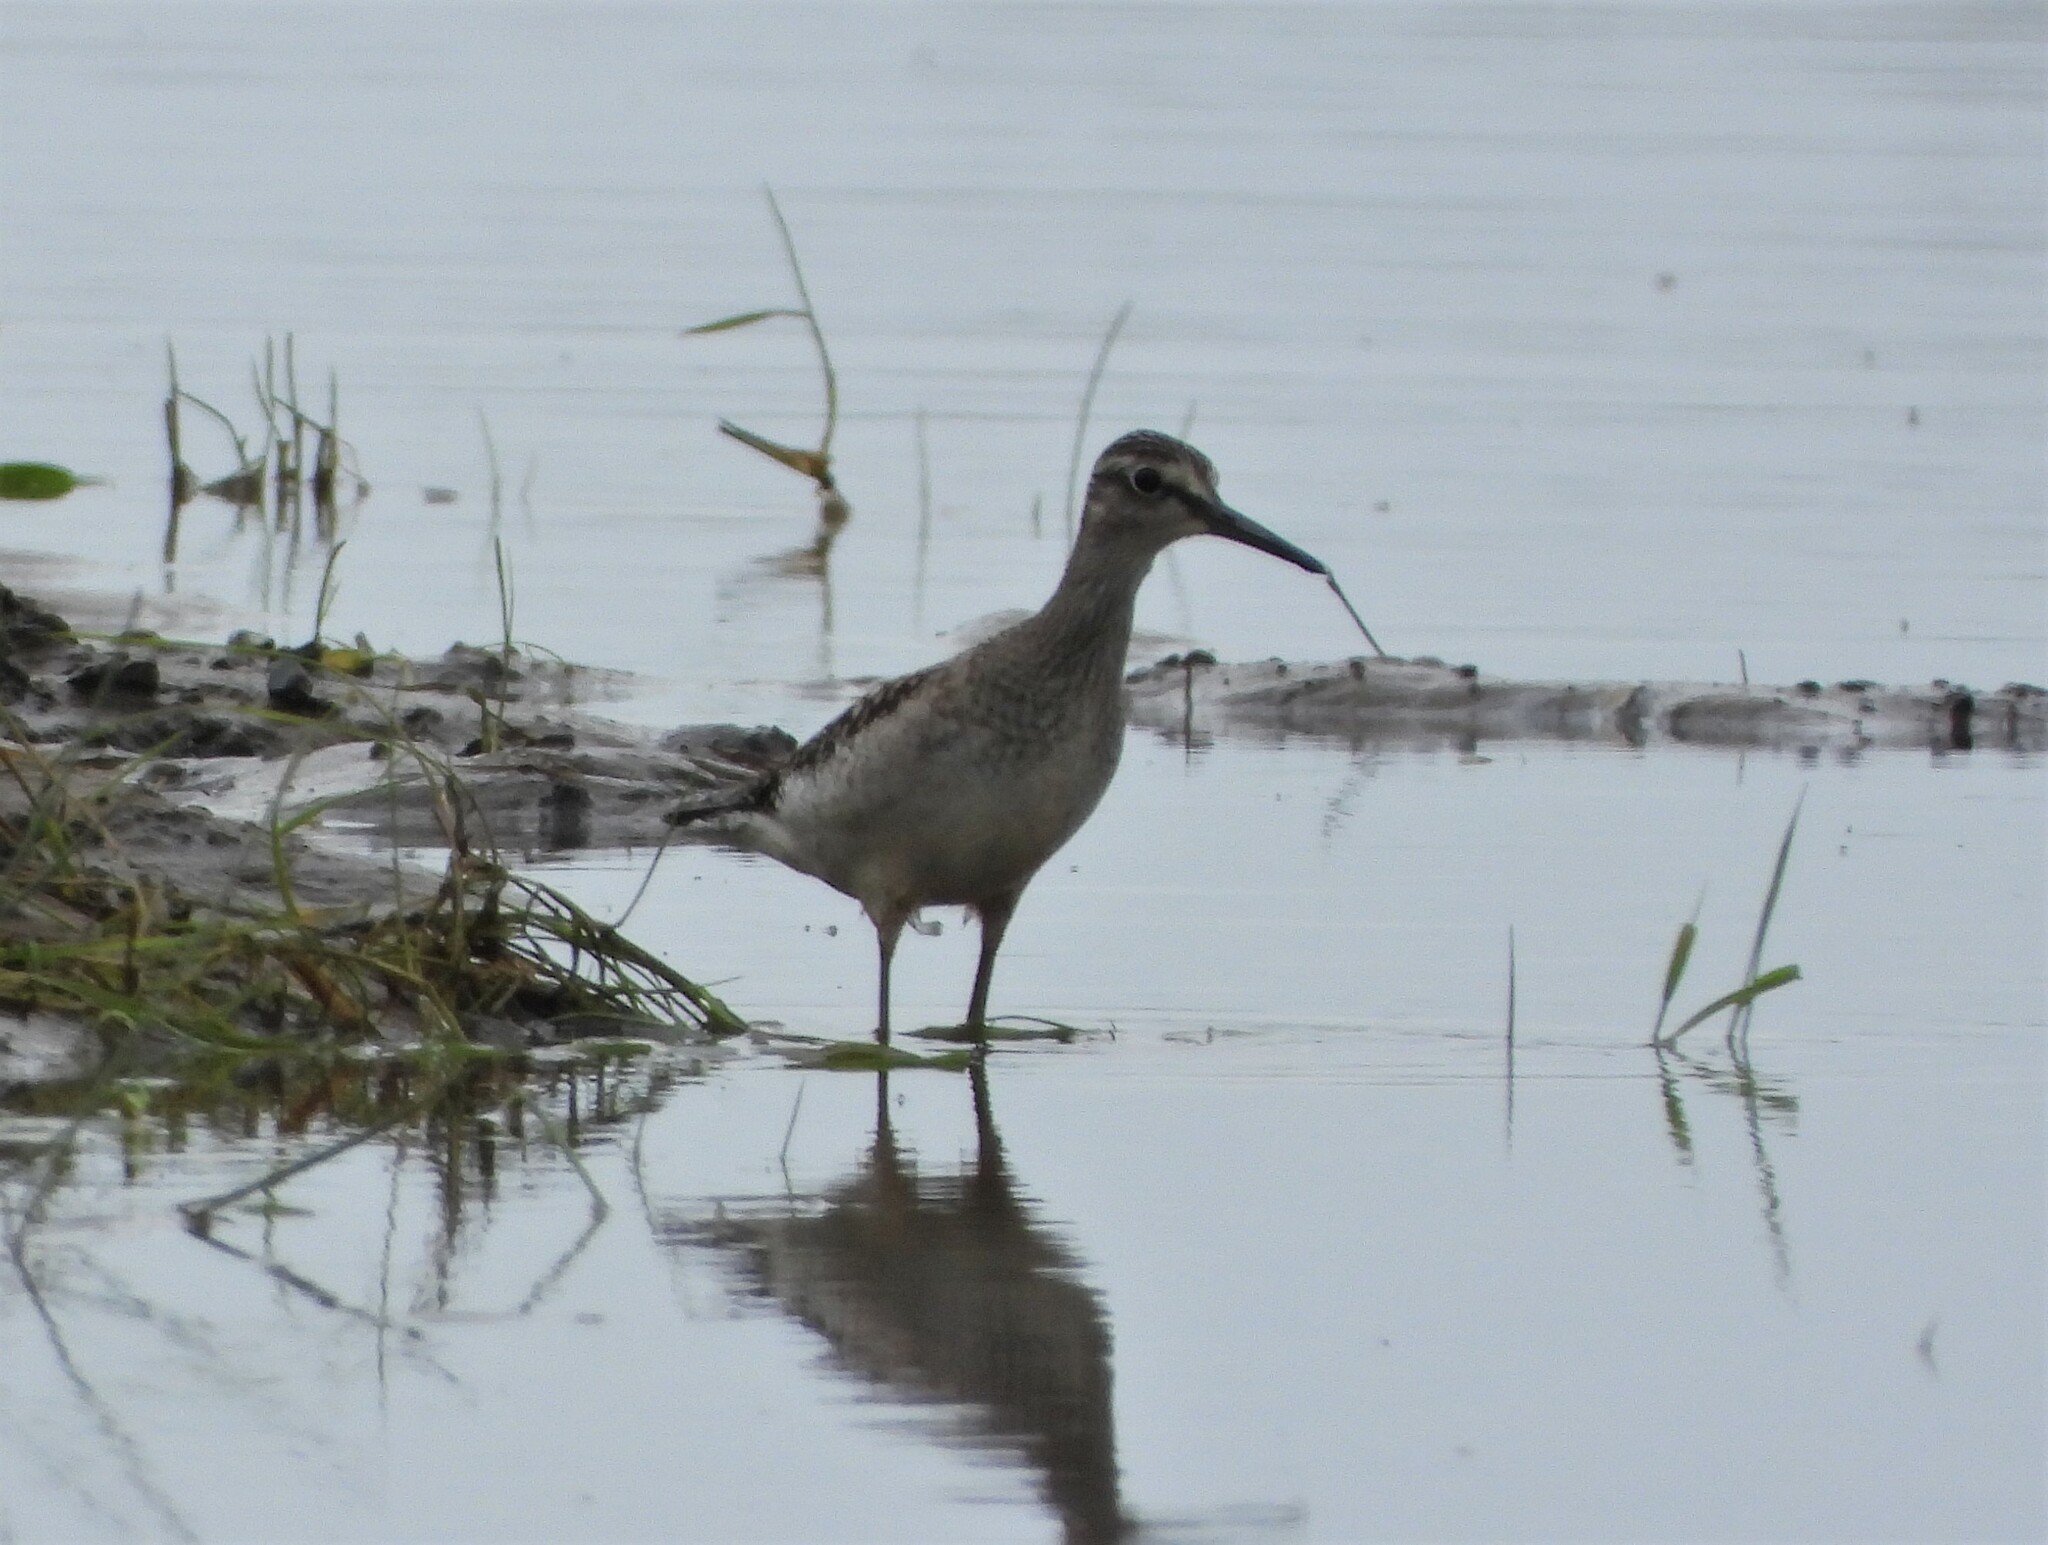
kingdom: Animalia
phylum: Chordata
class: Aves
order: Charadriiformes
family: Scolopacidae
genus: Tringa
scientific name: Tringa glareola
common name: Wood sandpiper
